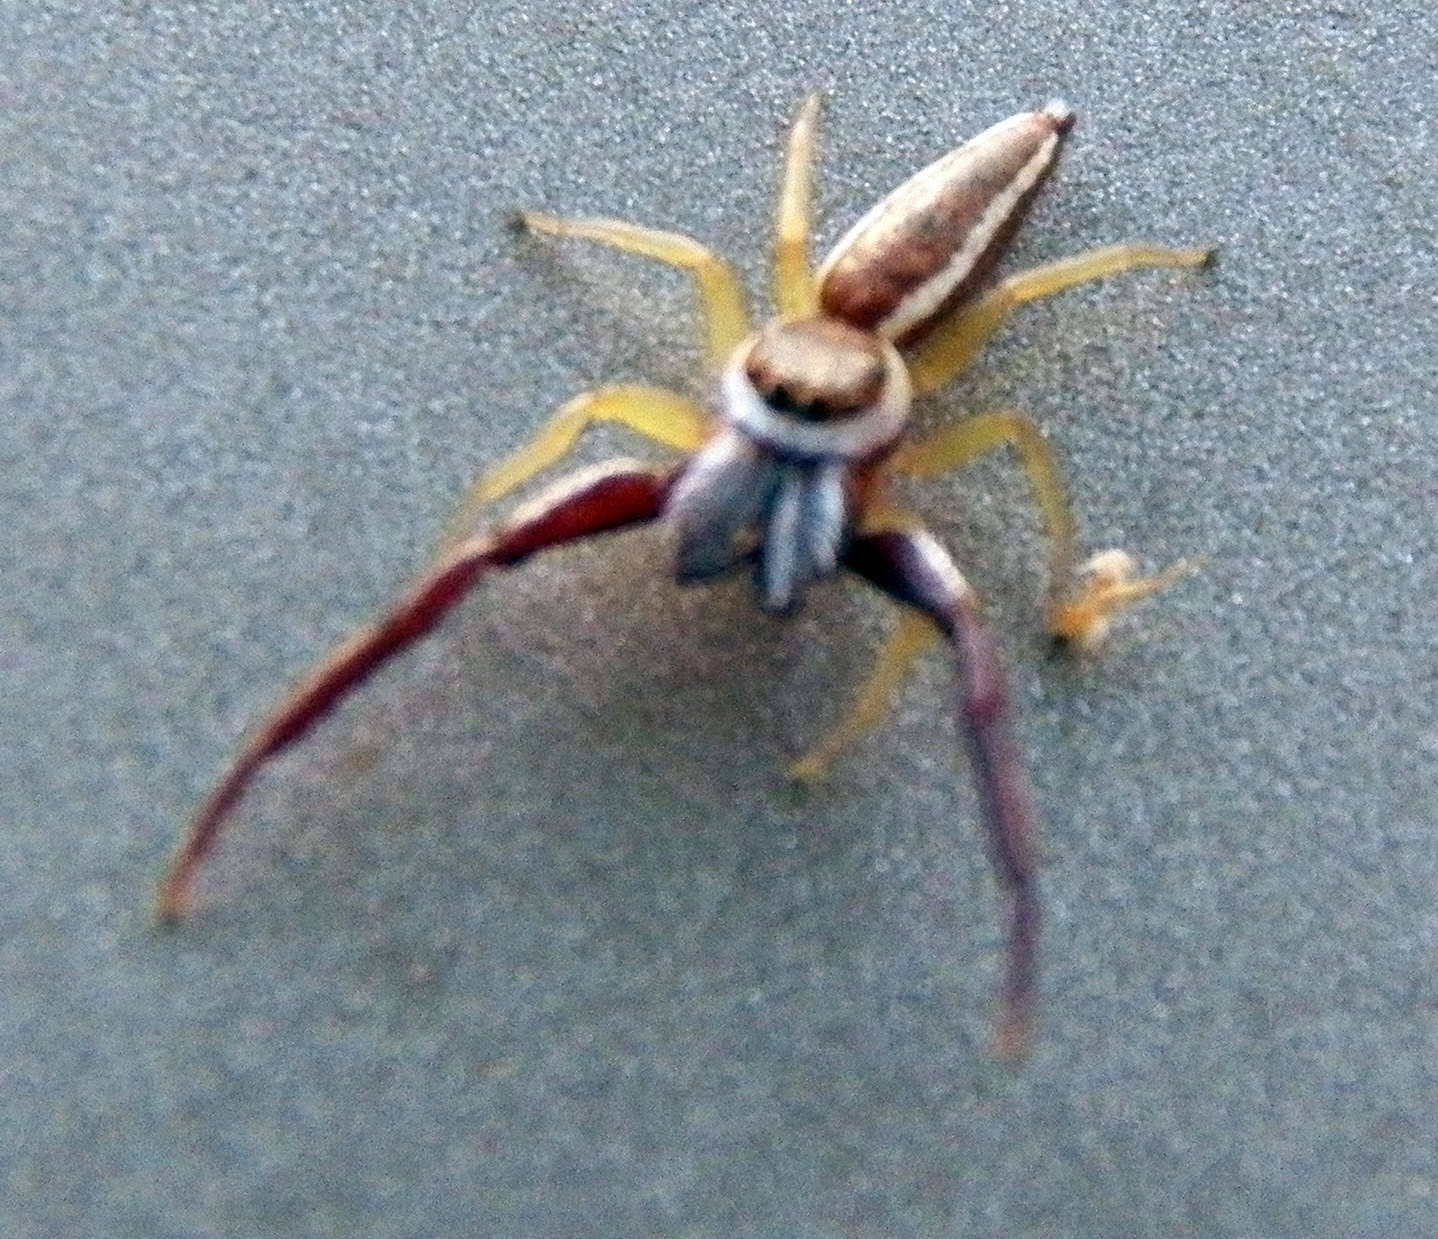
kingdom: Animalia
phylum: Arthropoda
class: Arachnida
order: Araneae
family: Salticidae
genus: Hentzia
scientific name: Hentzia palmarum
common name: Common hentz jumping spider
